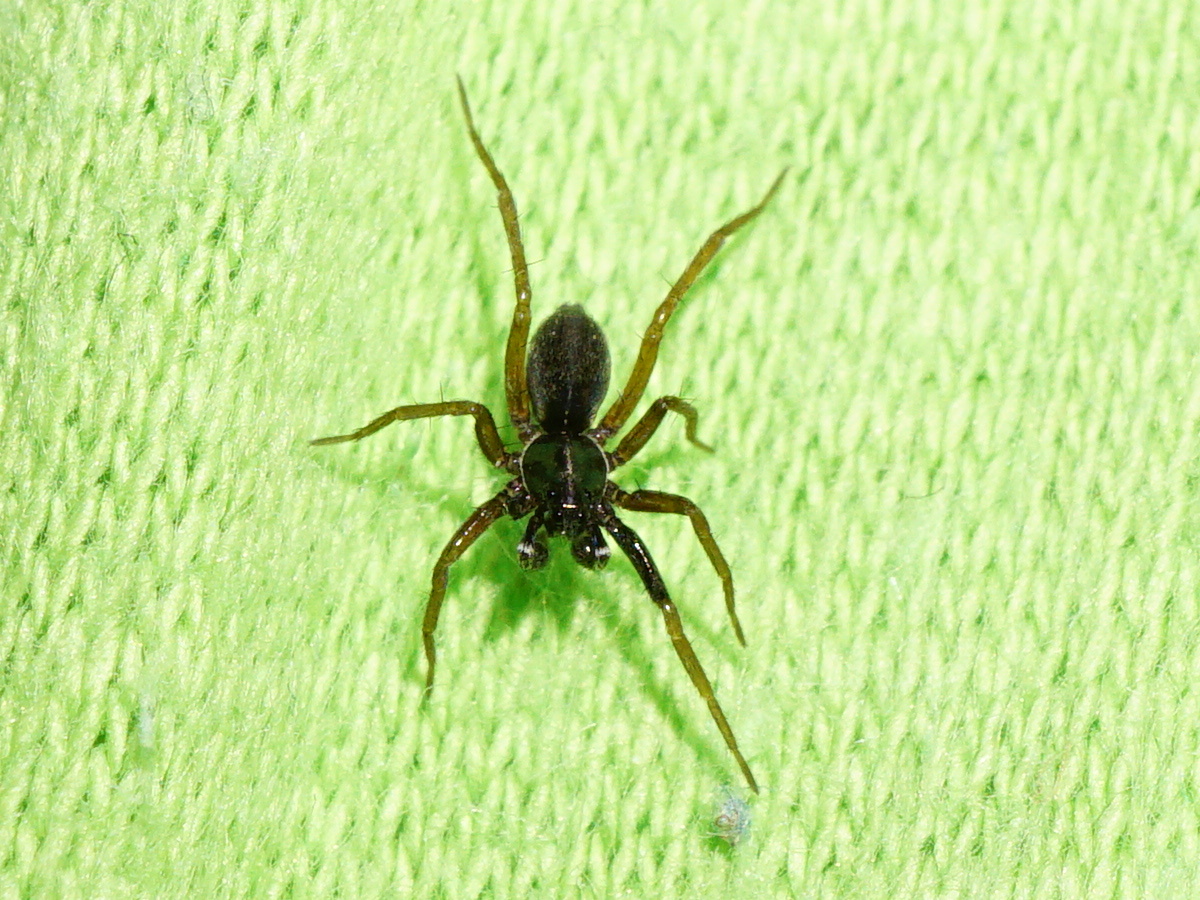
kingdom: Animalia
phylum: Arthropoda
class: Arachnida
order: Araneae
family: Lycosidae
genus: Aulonia
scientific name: Aulonia albimana
